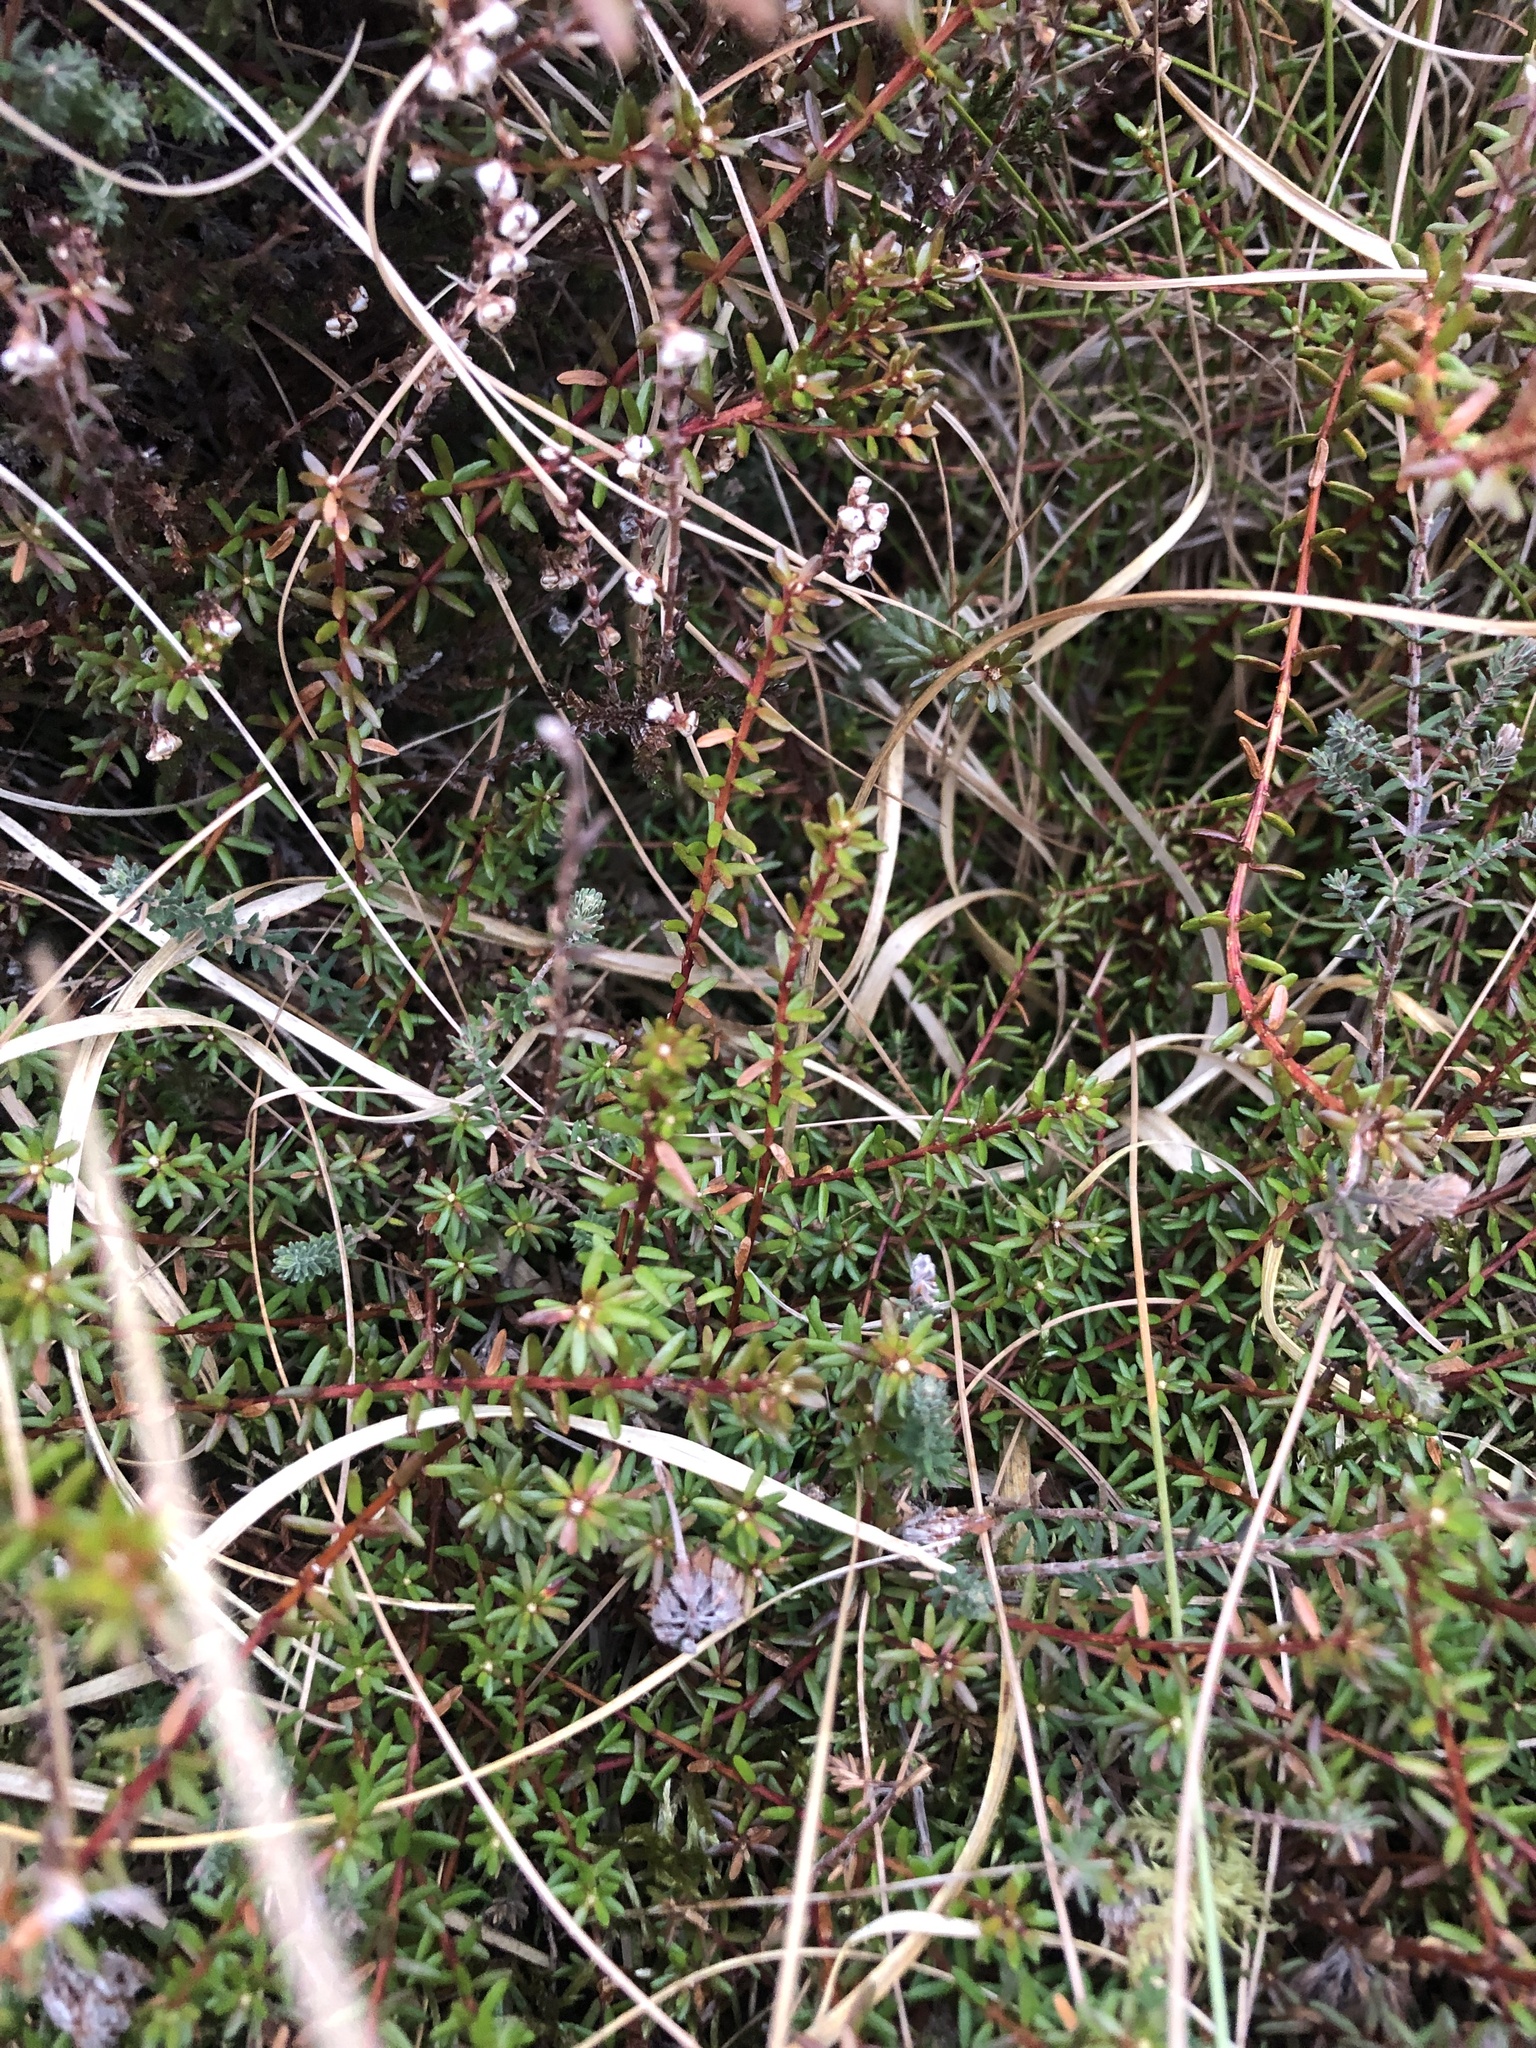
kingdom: Plantae
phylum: Tracheophyta
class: Magnoliopsida
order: Ericales
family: Ericaceae
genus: Empetrum
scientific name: Empetrum nigrum
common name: Black crowberry
